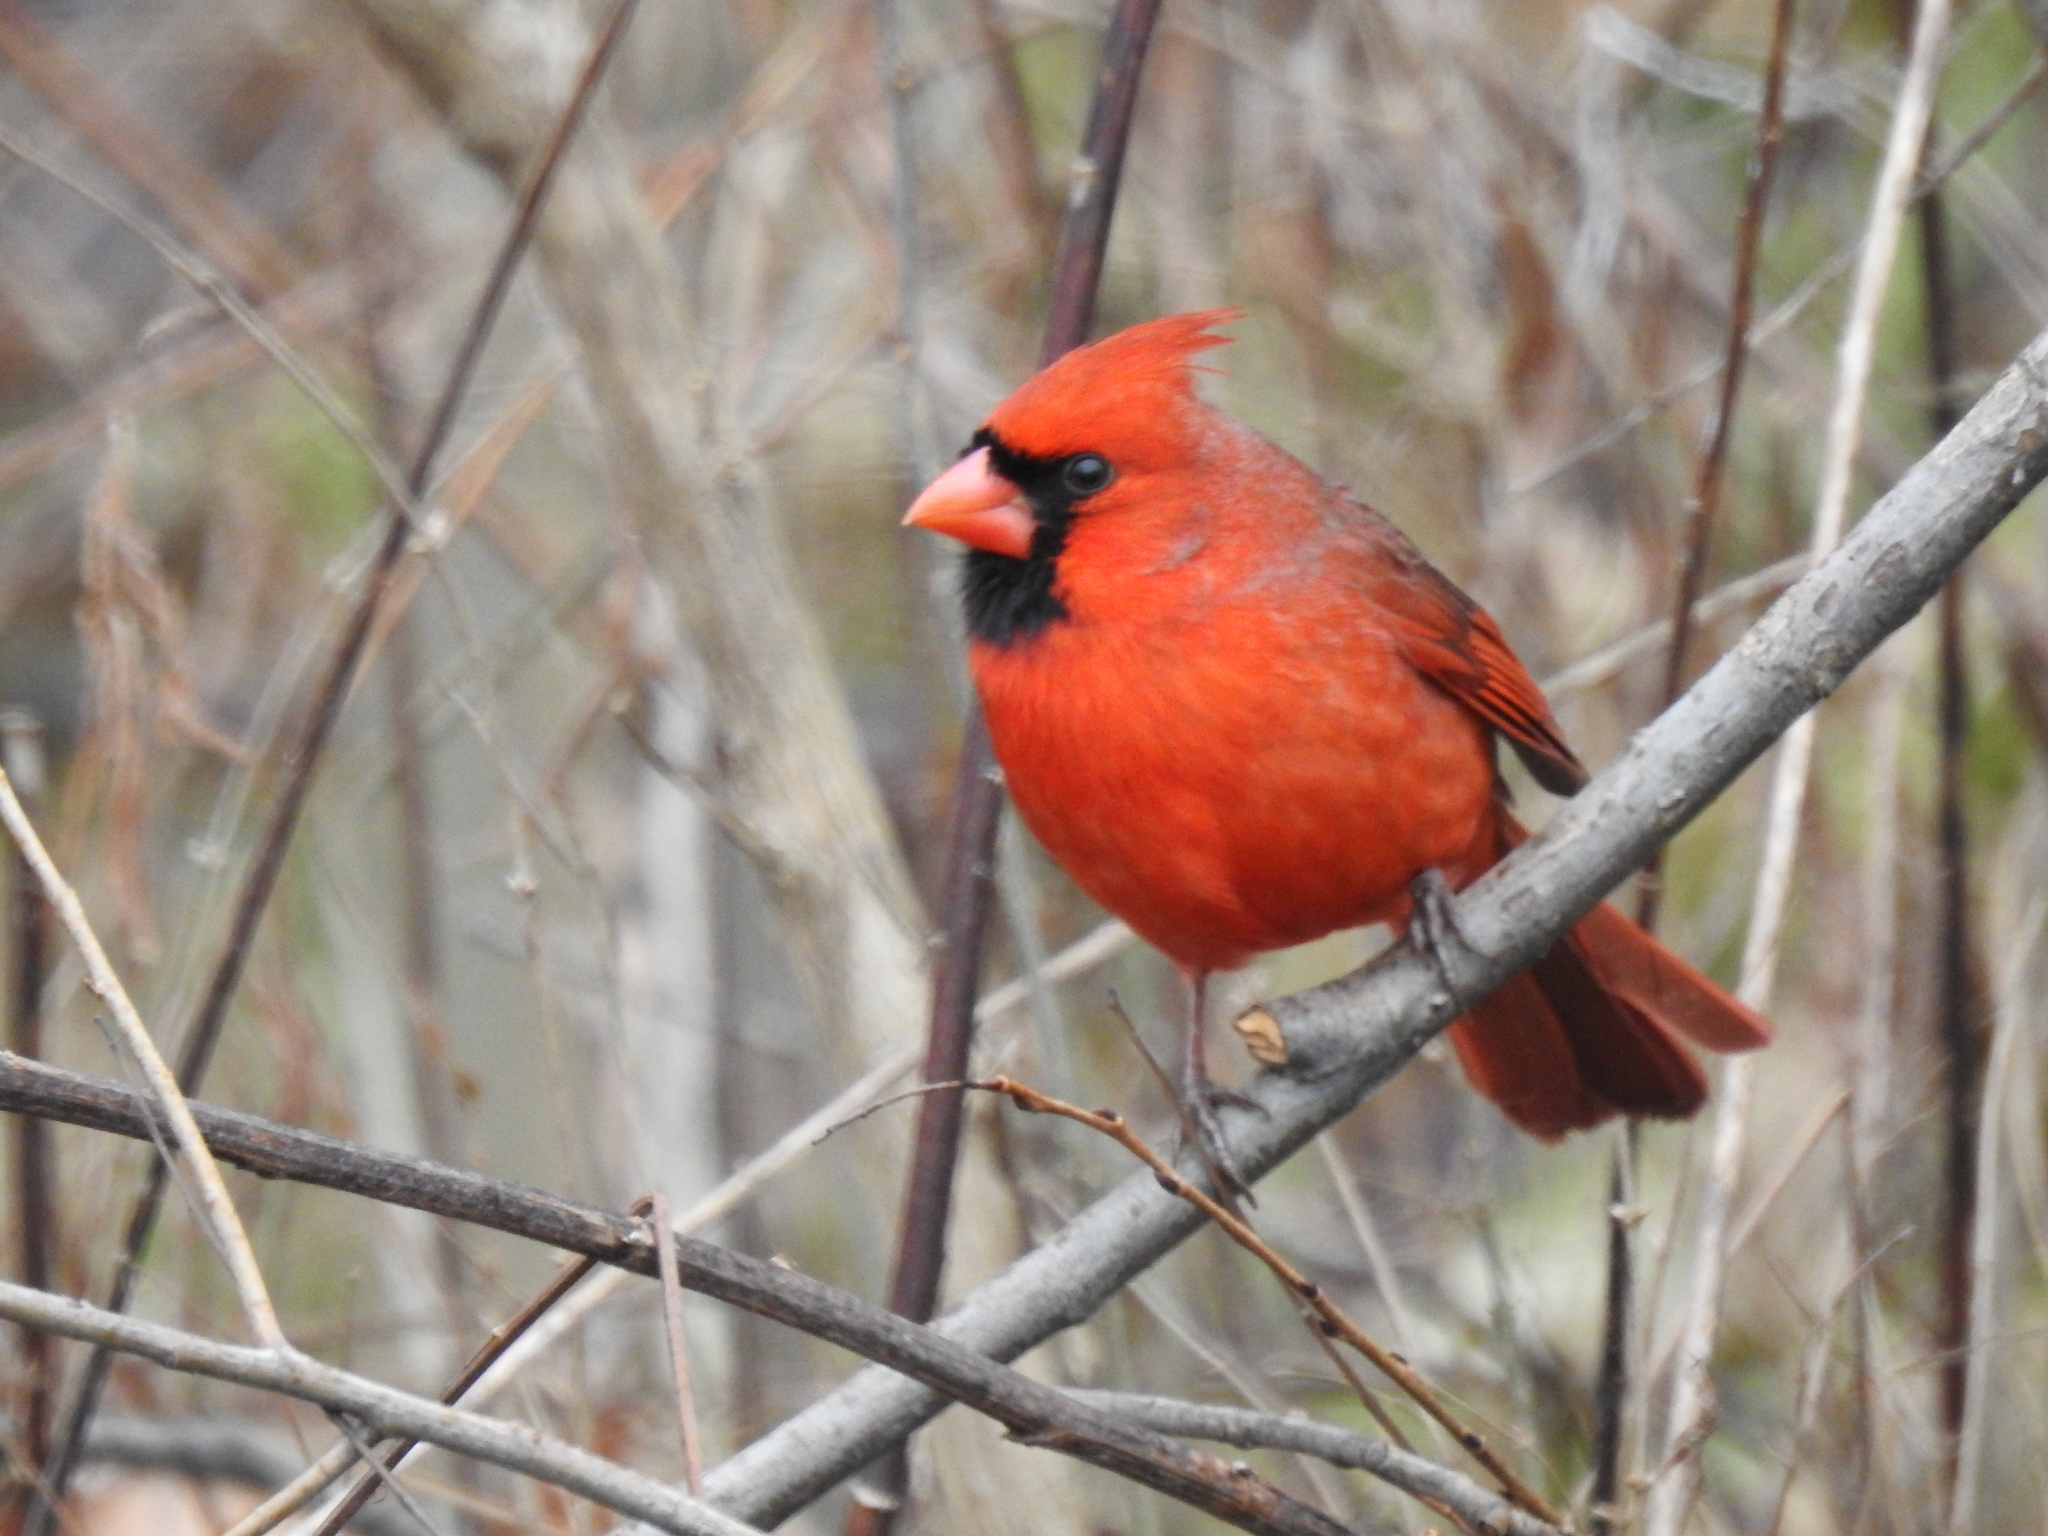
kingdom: Animalia
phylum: Chordata
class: Aves
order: Passeriformes
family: Cardinalidae
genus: Cardinalis
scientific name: Cardinalis cardinalis
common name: Northern cardinal
